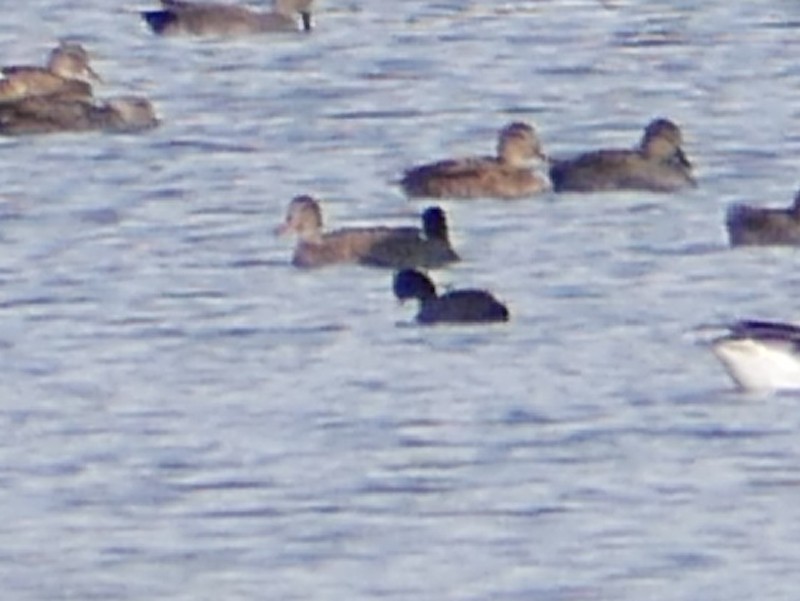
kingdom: Animalia
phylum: Chordata
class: Aves
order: Gruiformes
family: Rallidae
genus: Fulica
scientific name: Fulica atra
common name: Eurasian coot
